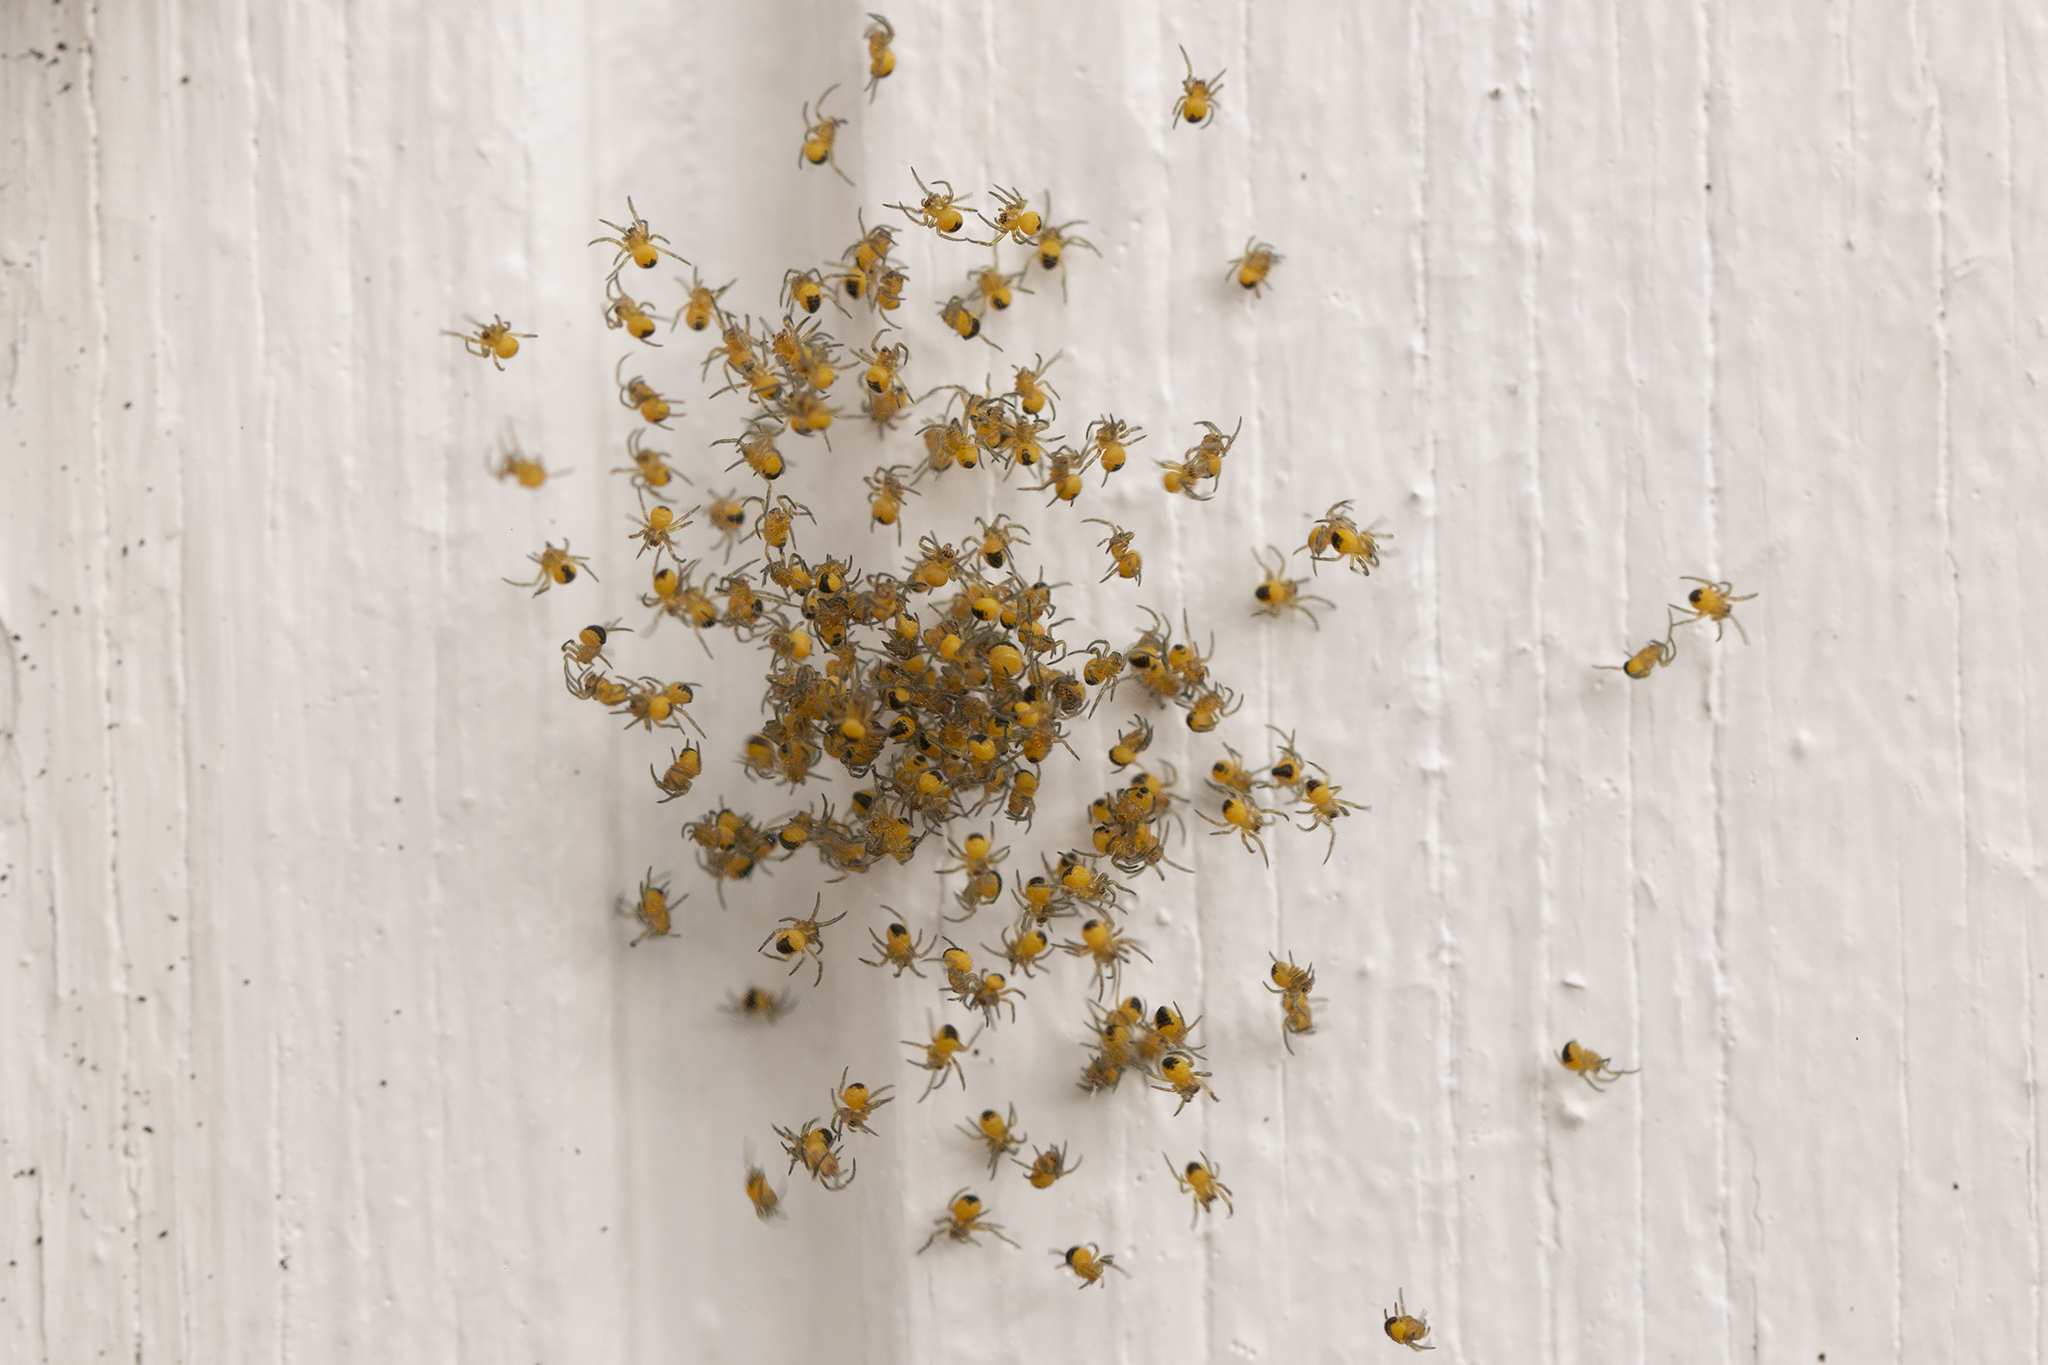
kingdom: Animalia
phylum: Arthropoda
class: Arachnida
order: Araneae
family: Araneidae
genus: Araneus
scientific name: Araneus diadematus
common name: Cross orbweaver
